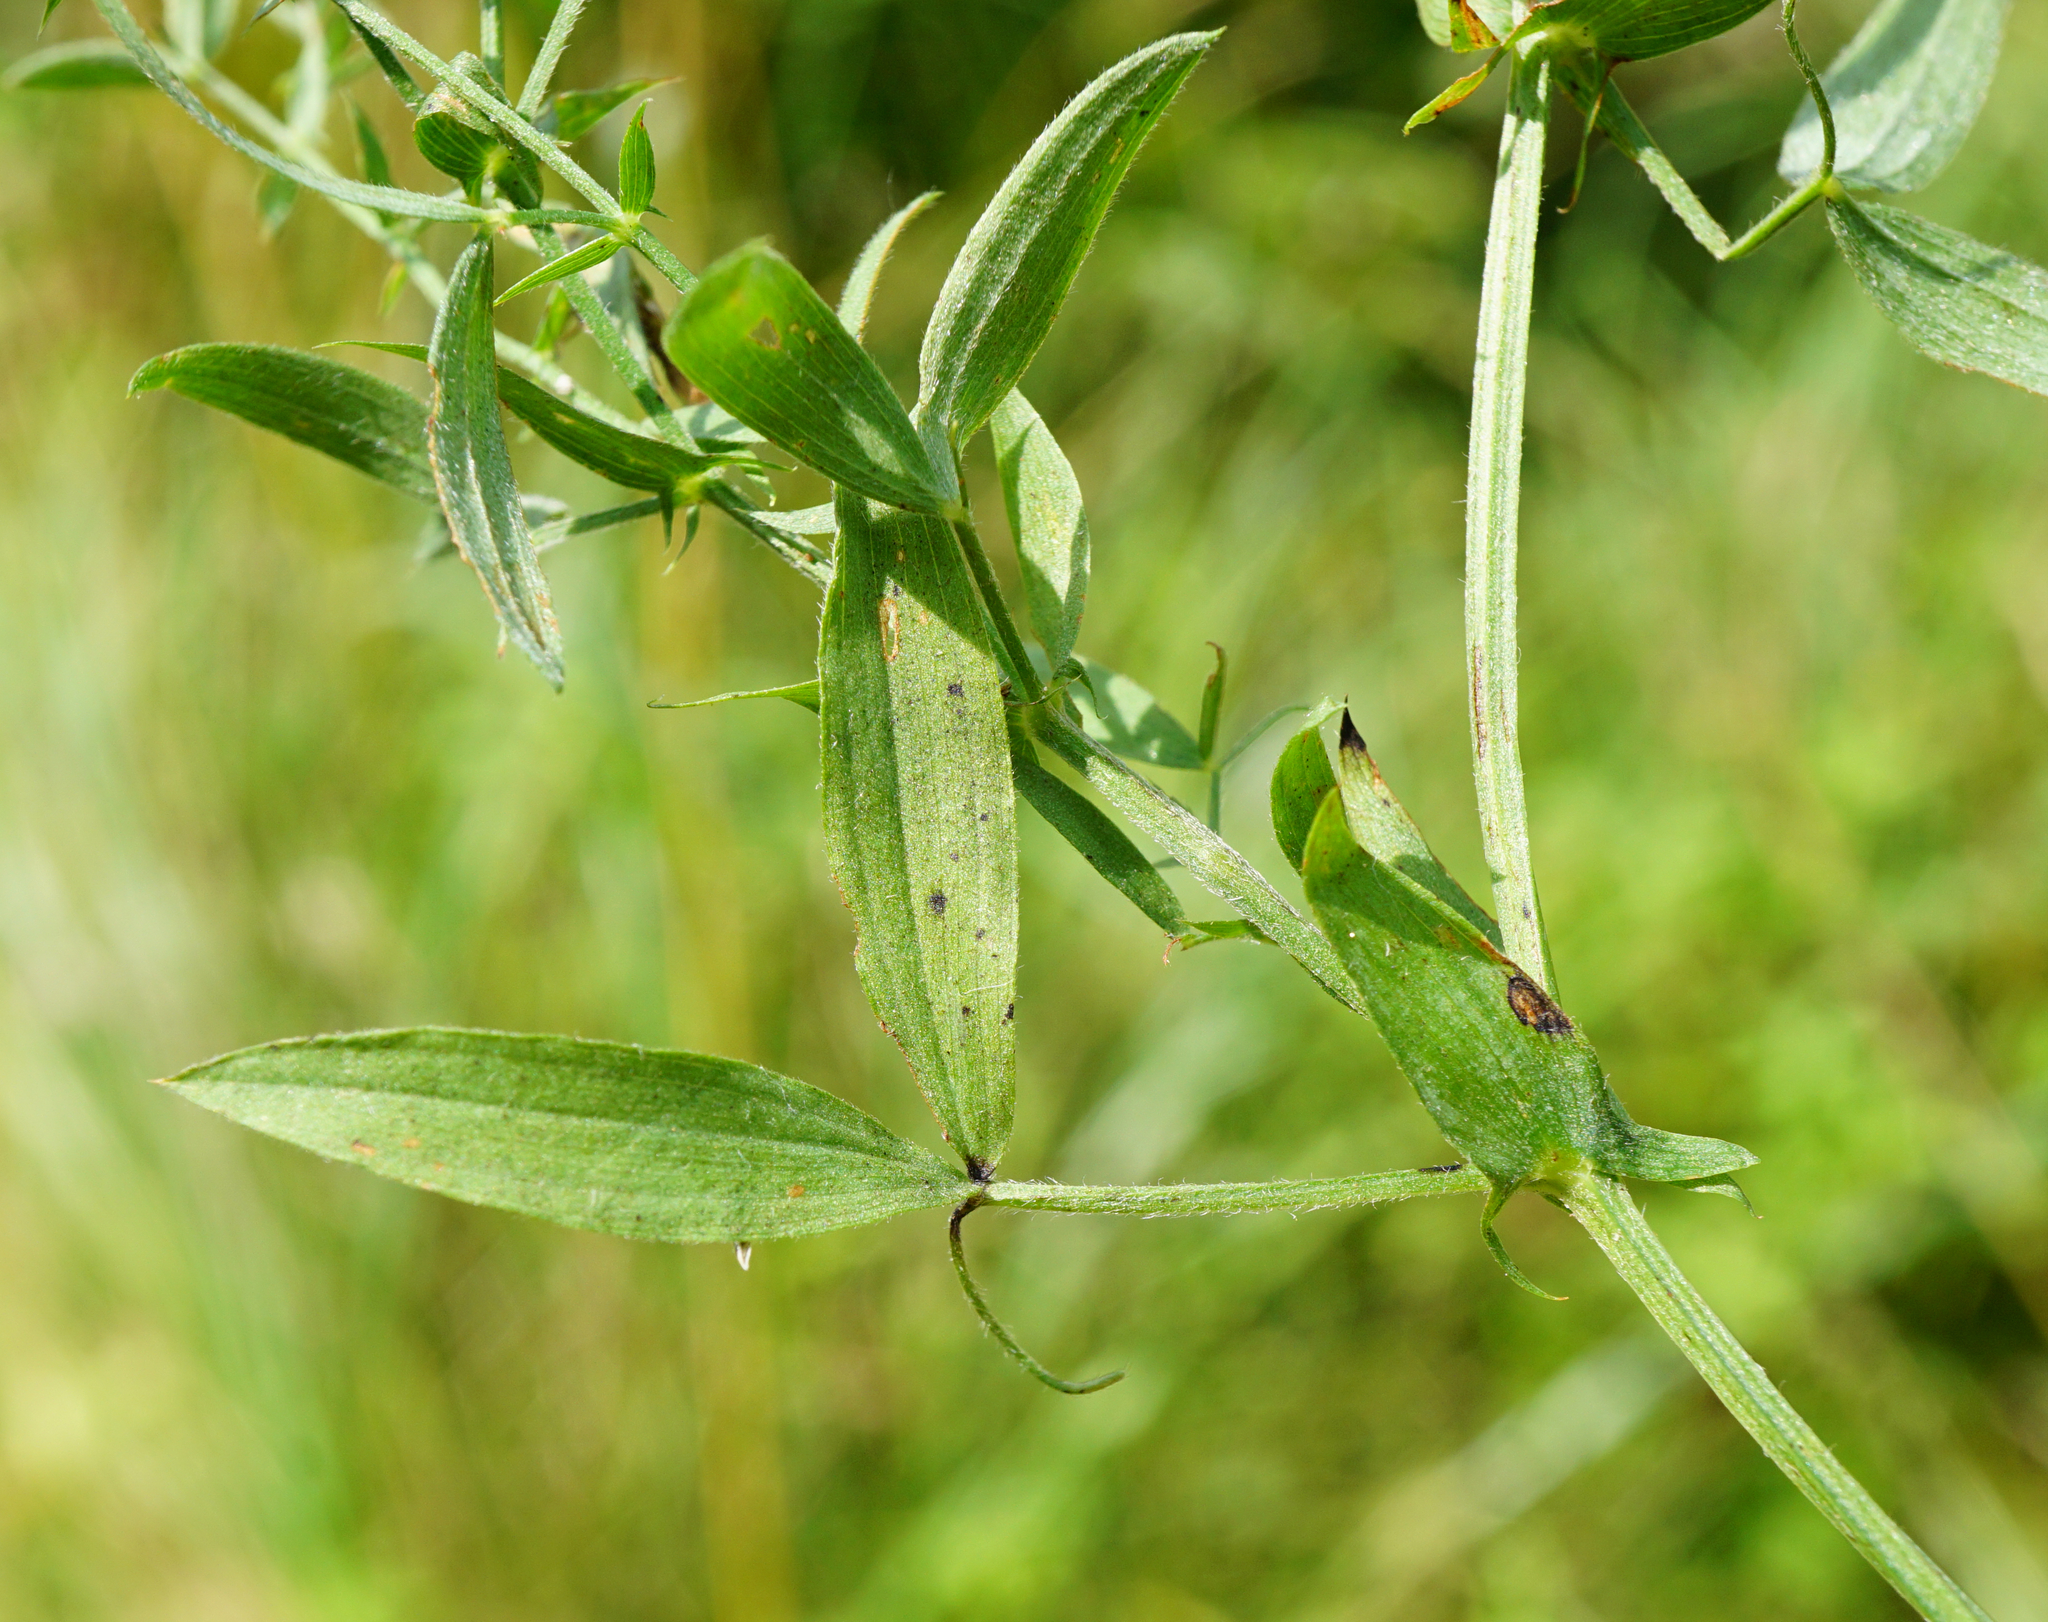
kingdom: Plantae
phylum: Tracheophyta
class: Magnoliopsida
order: Fabales
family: Fabaceae
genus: Lathyrus
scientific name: Lathyrus pratensis
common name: Meadow vetchling
